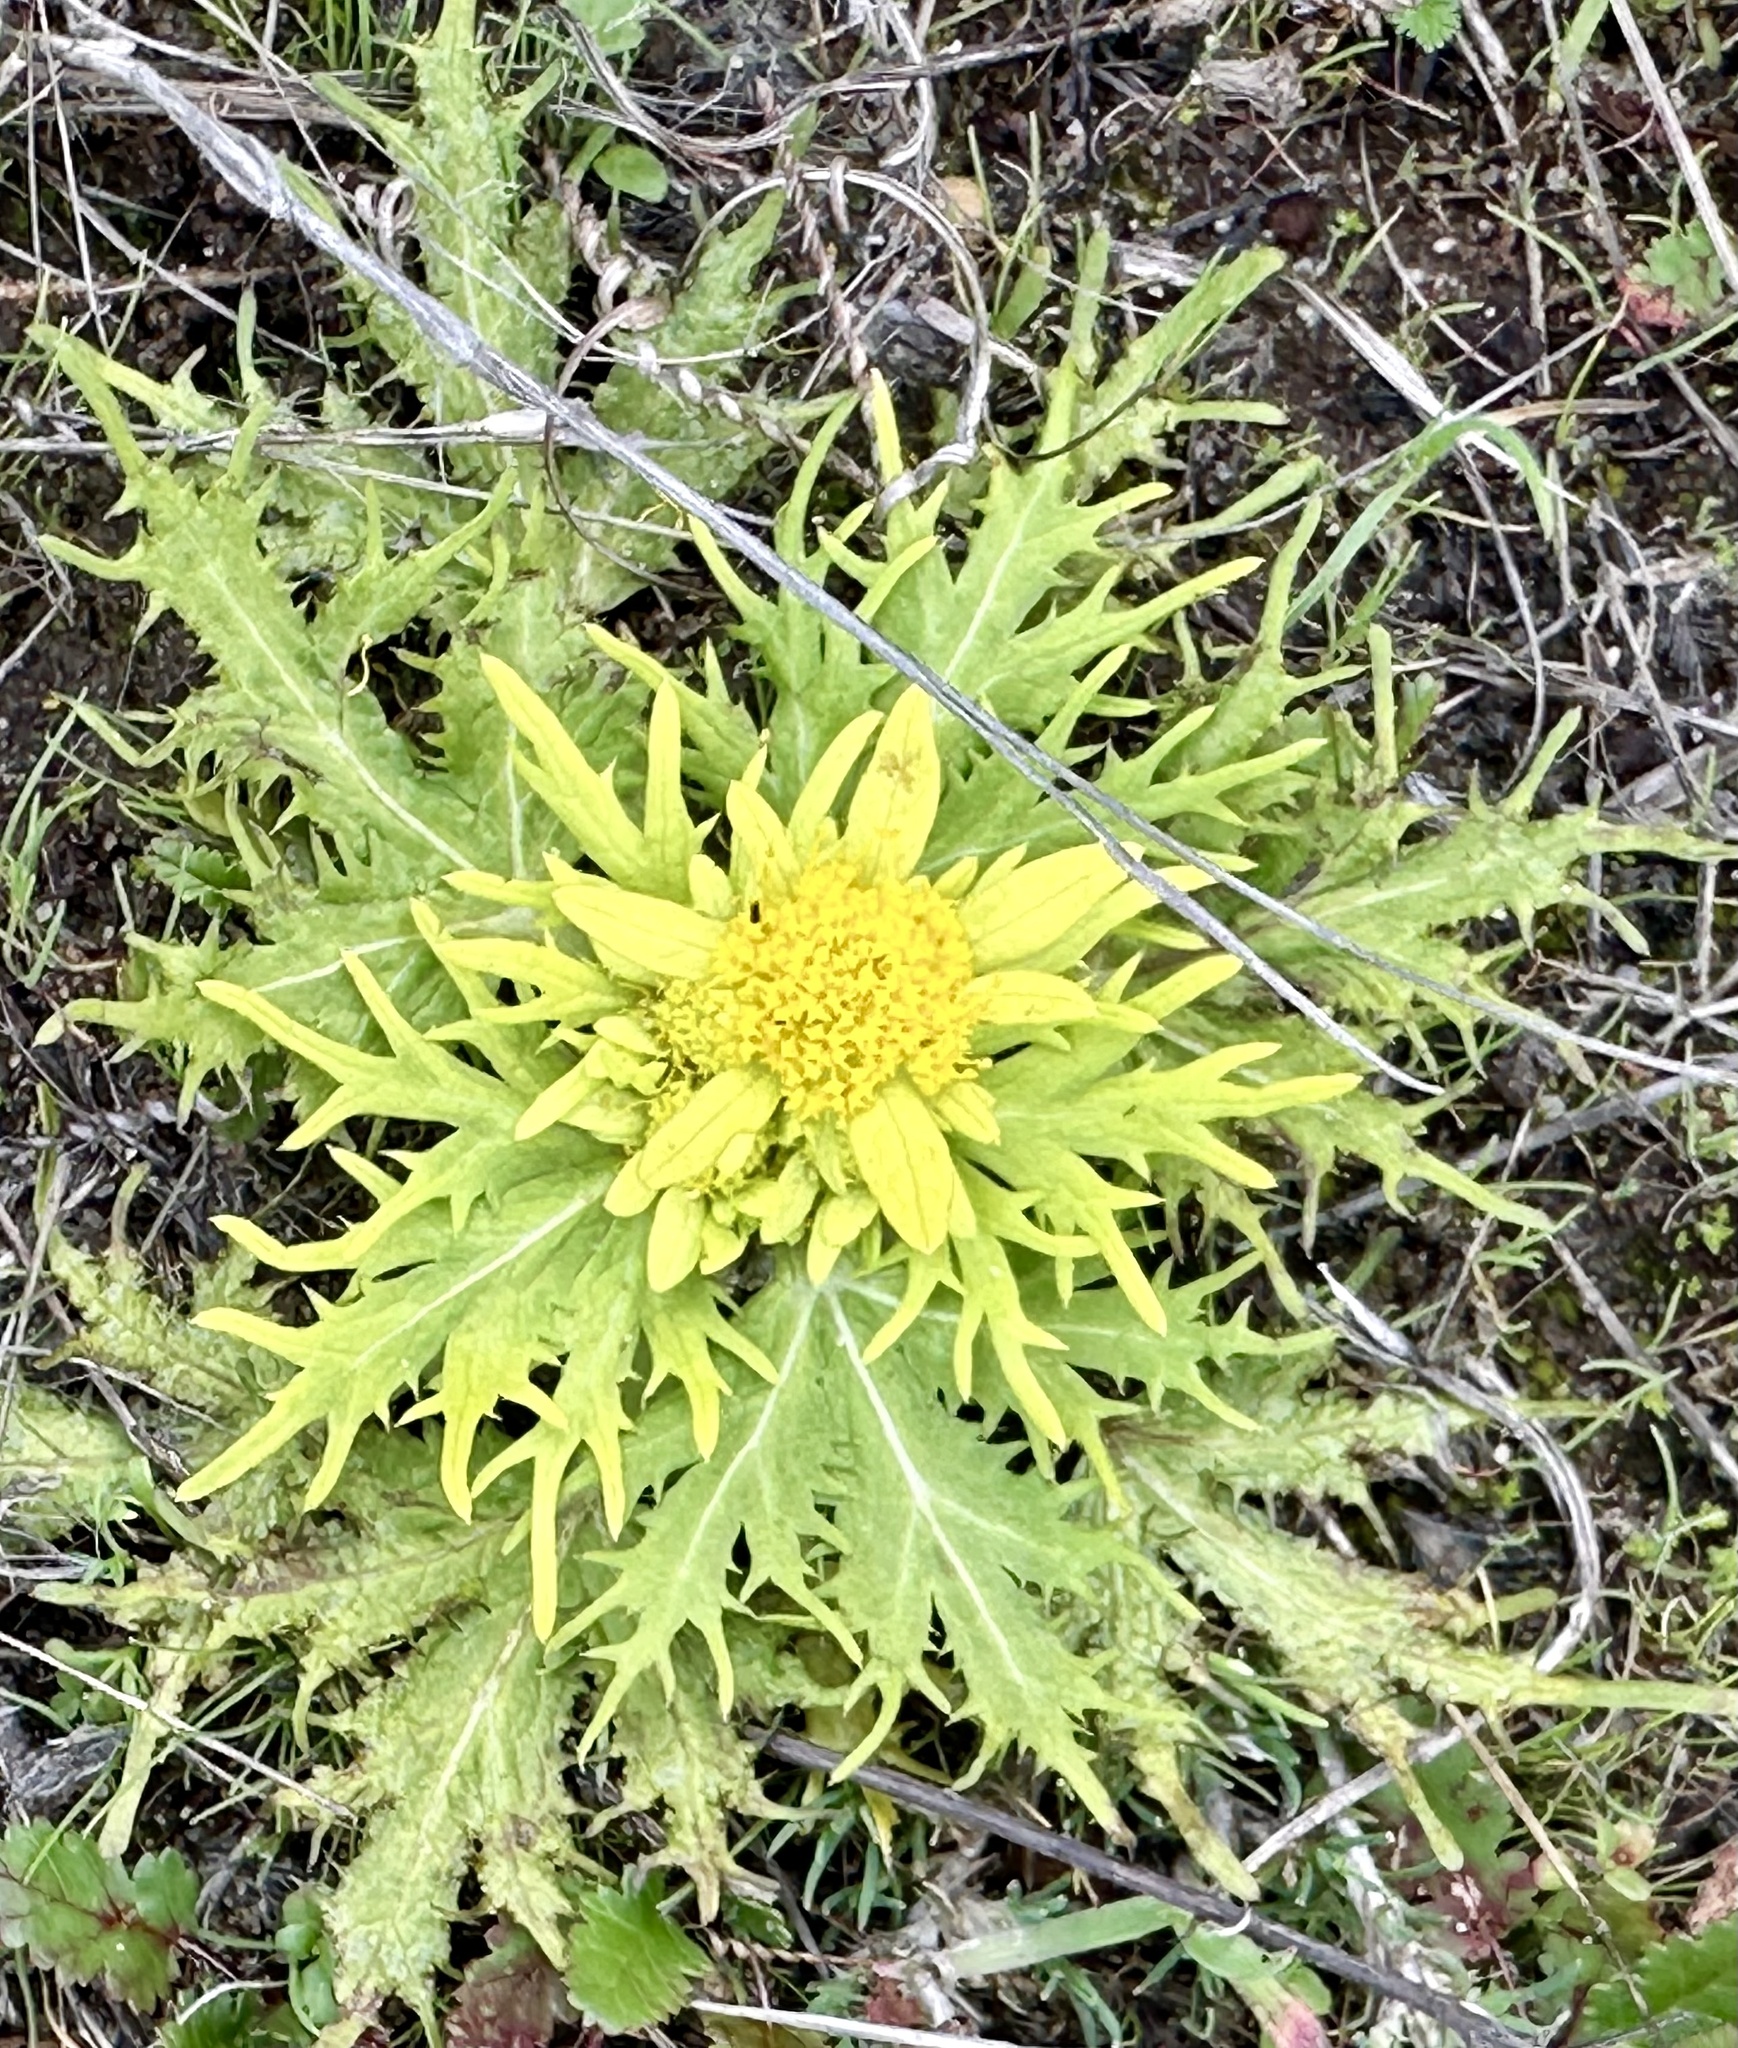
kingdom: Plantae
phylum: Tracheophyta
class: Magnoliopsida
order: Apiales
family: Apiaceae
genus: Sanicula
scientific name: Sanicula arctopoides
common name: Footsteps-of-spring
